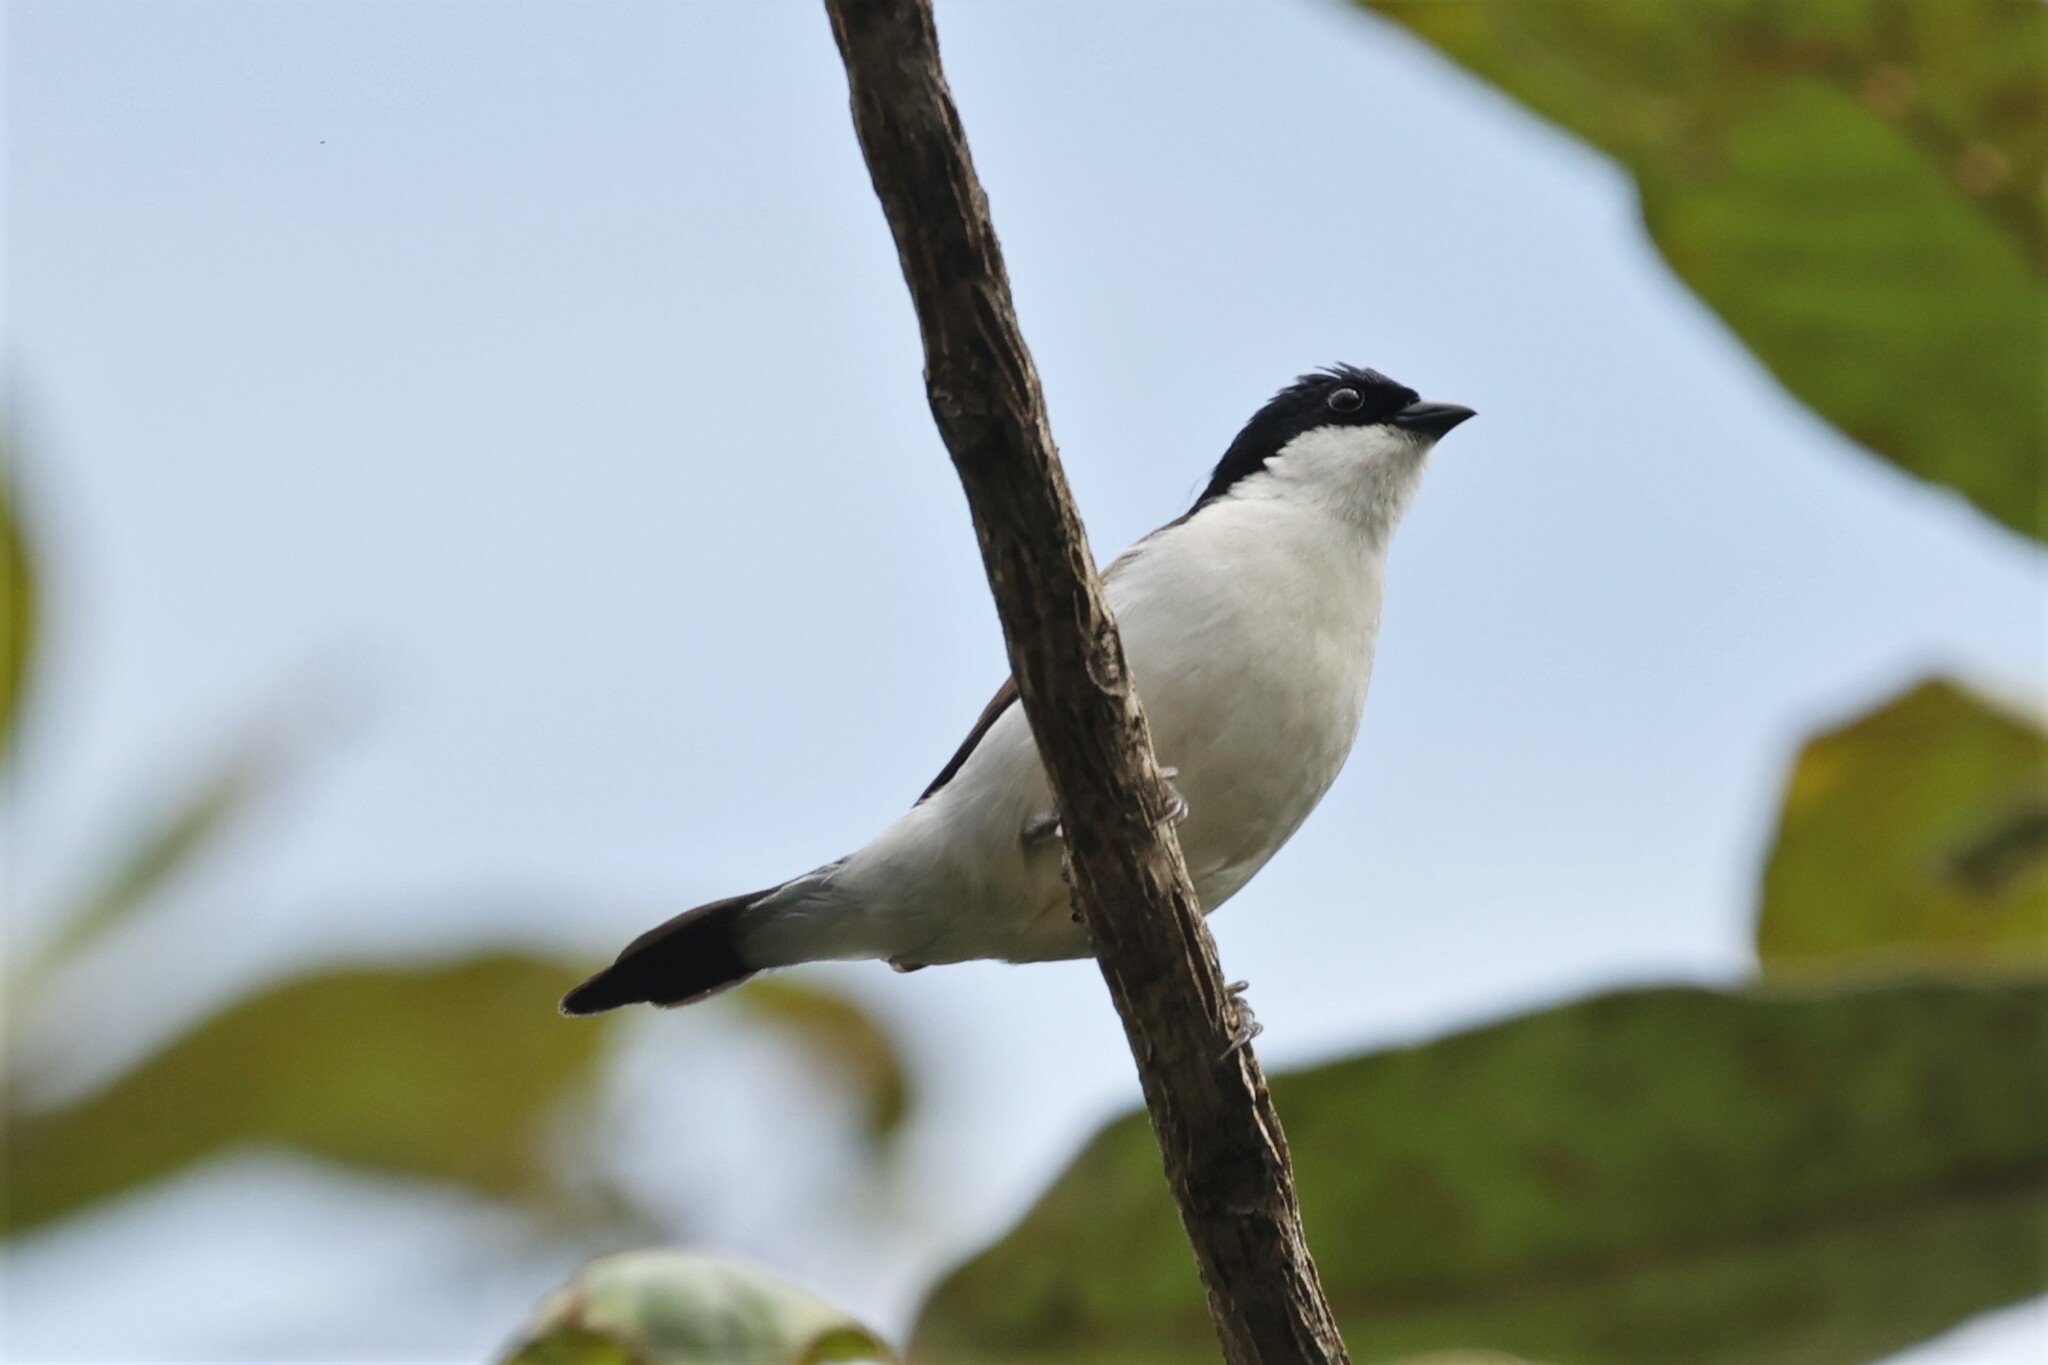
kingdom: Animalia
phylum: Chordata
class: Aves
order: Passeriformes
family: Estrildidae
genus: Nigrita
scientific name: Nigrita fusconotus
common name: White-breasted nigrita
